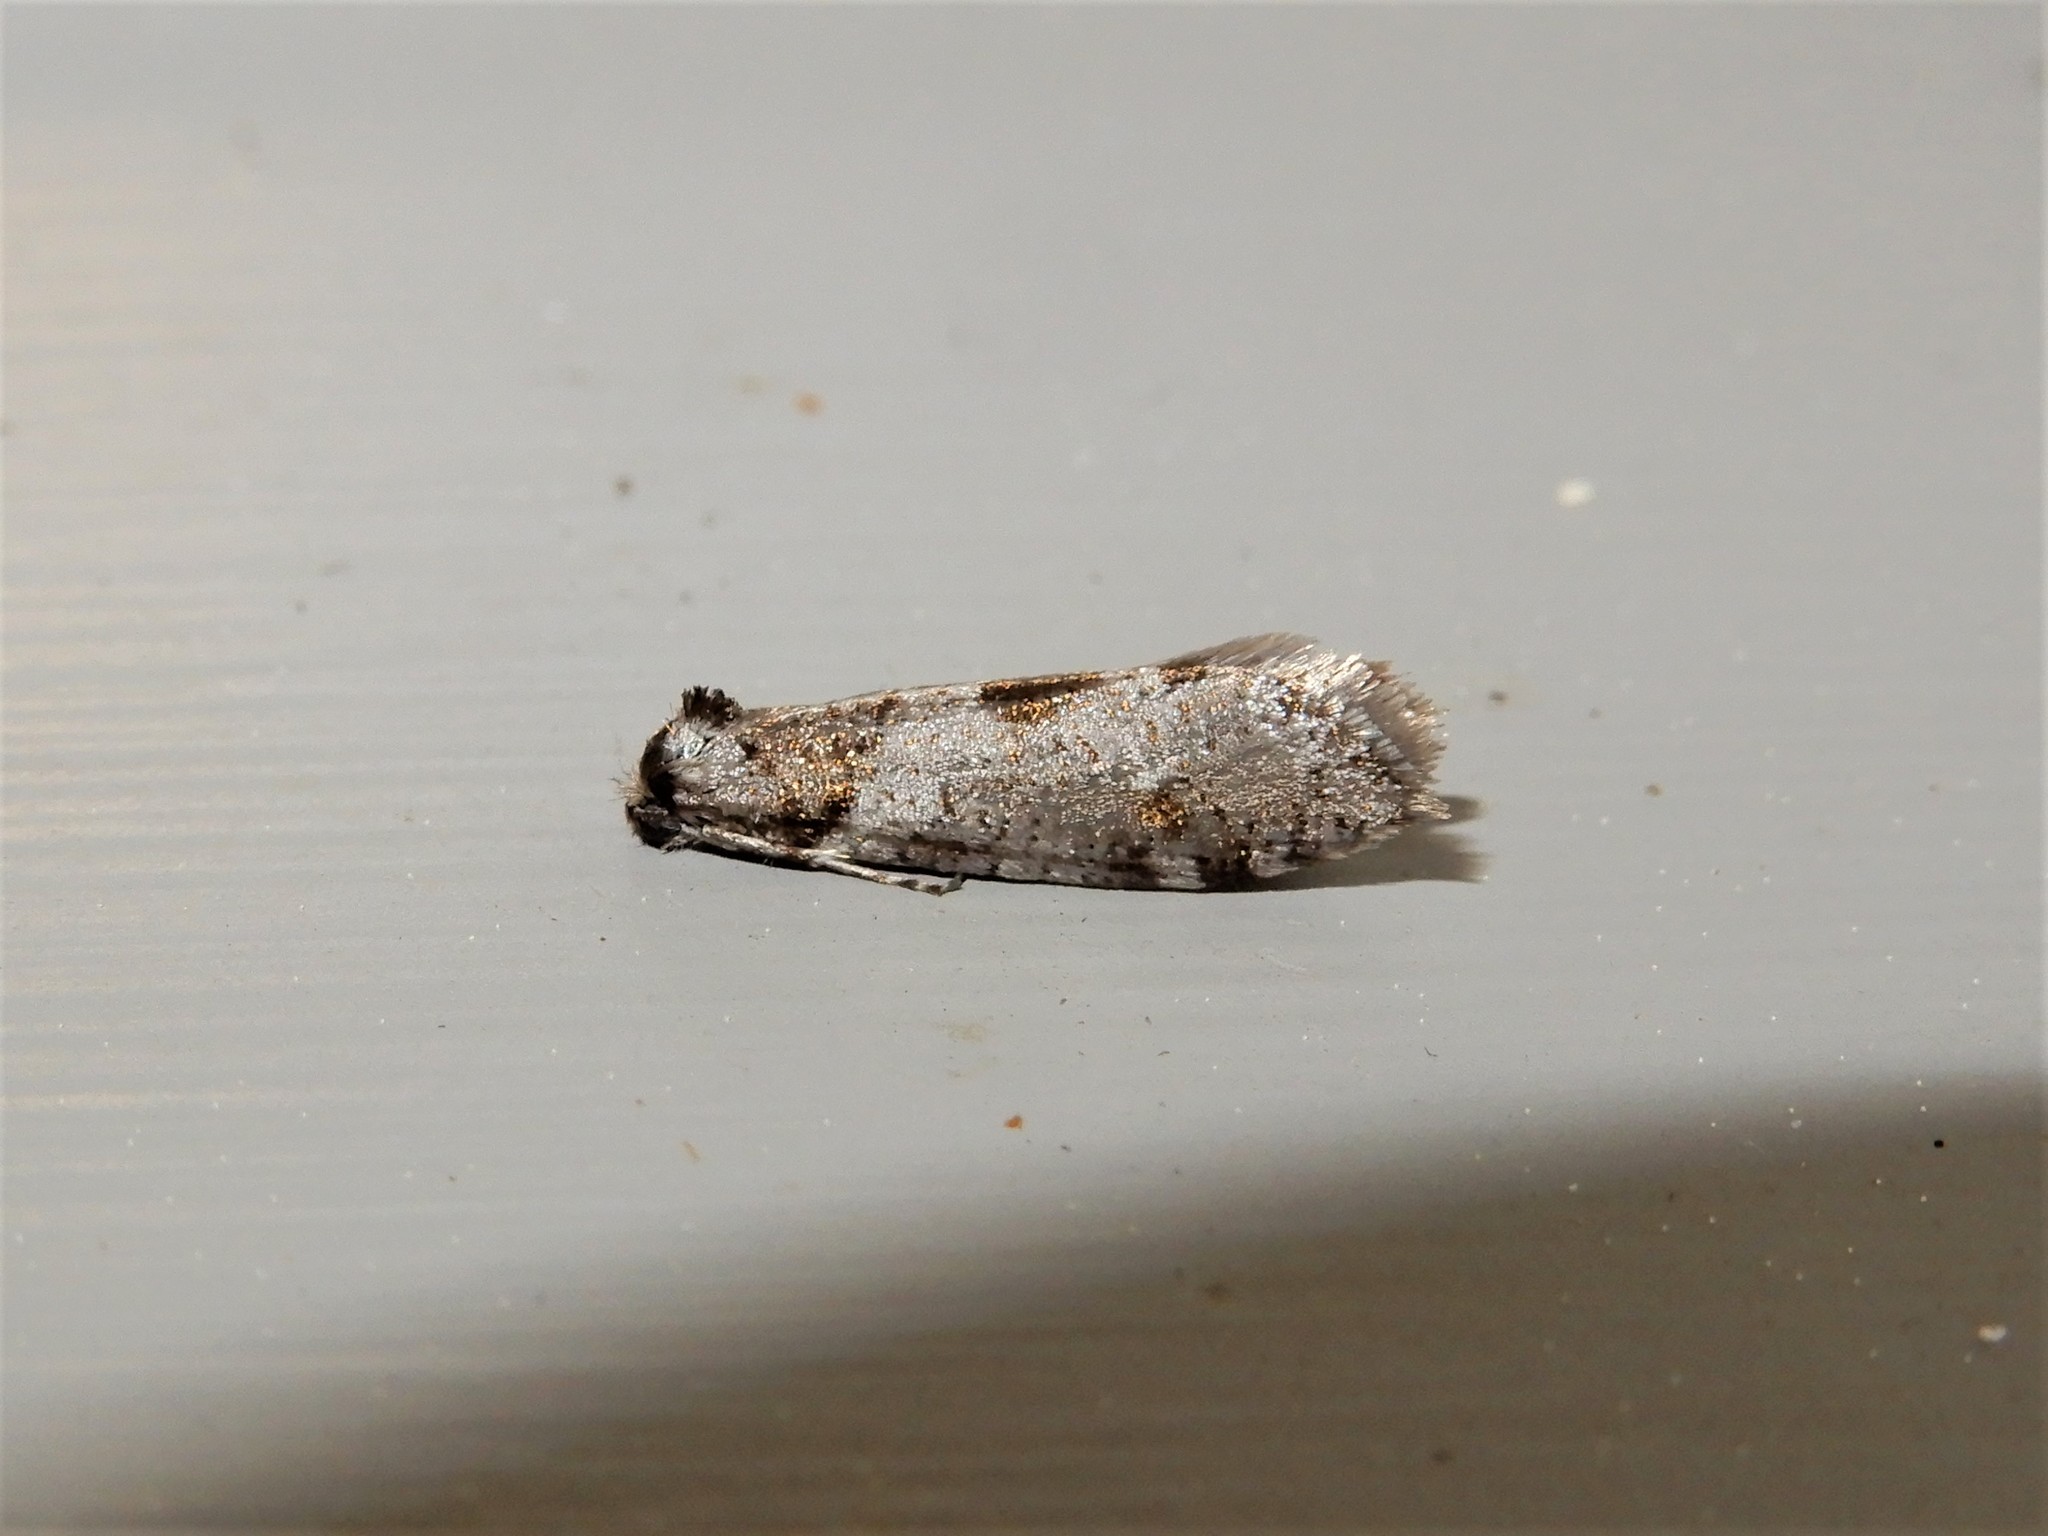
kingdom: Animalia
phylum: Arthropoda
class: Insecta
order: Lepidoptera
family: Psychidae
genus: Lepidoscia
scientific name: Lepidoscia heliochares
